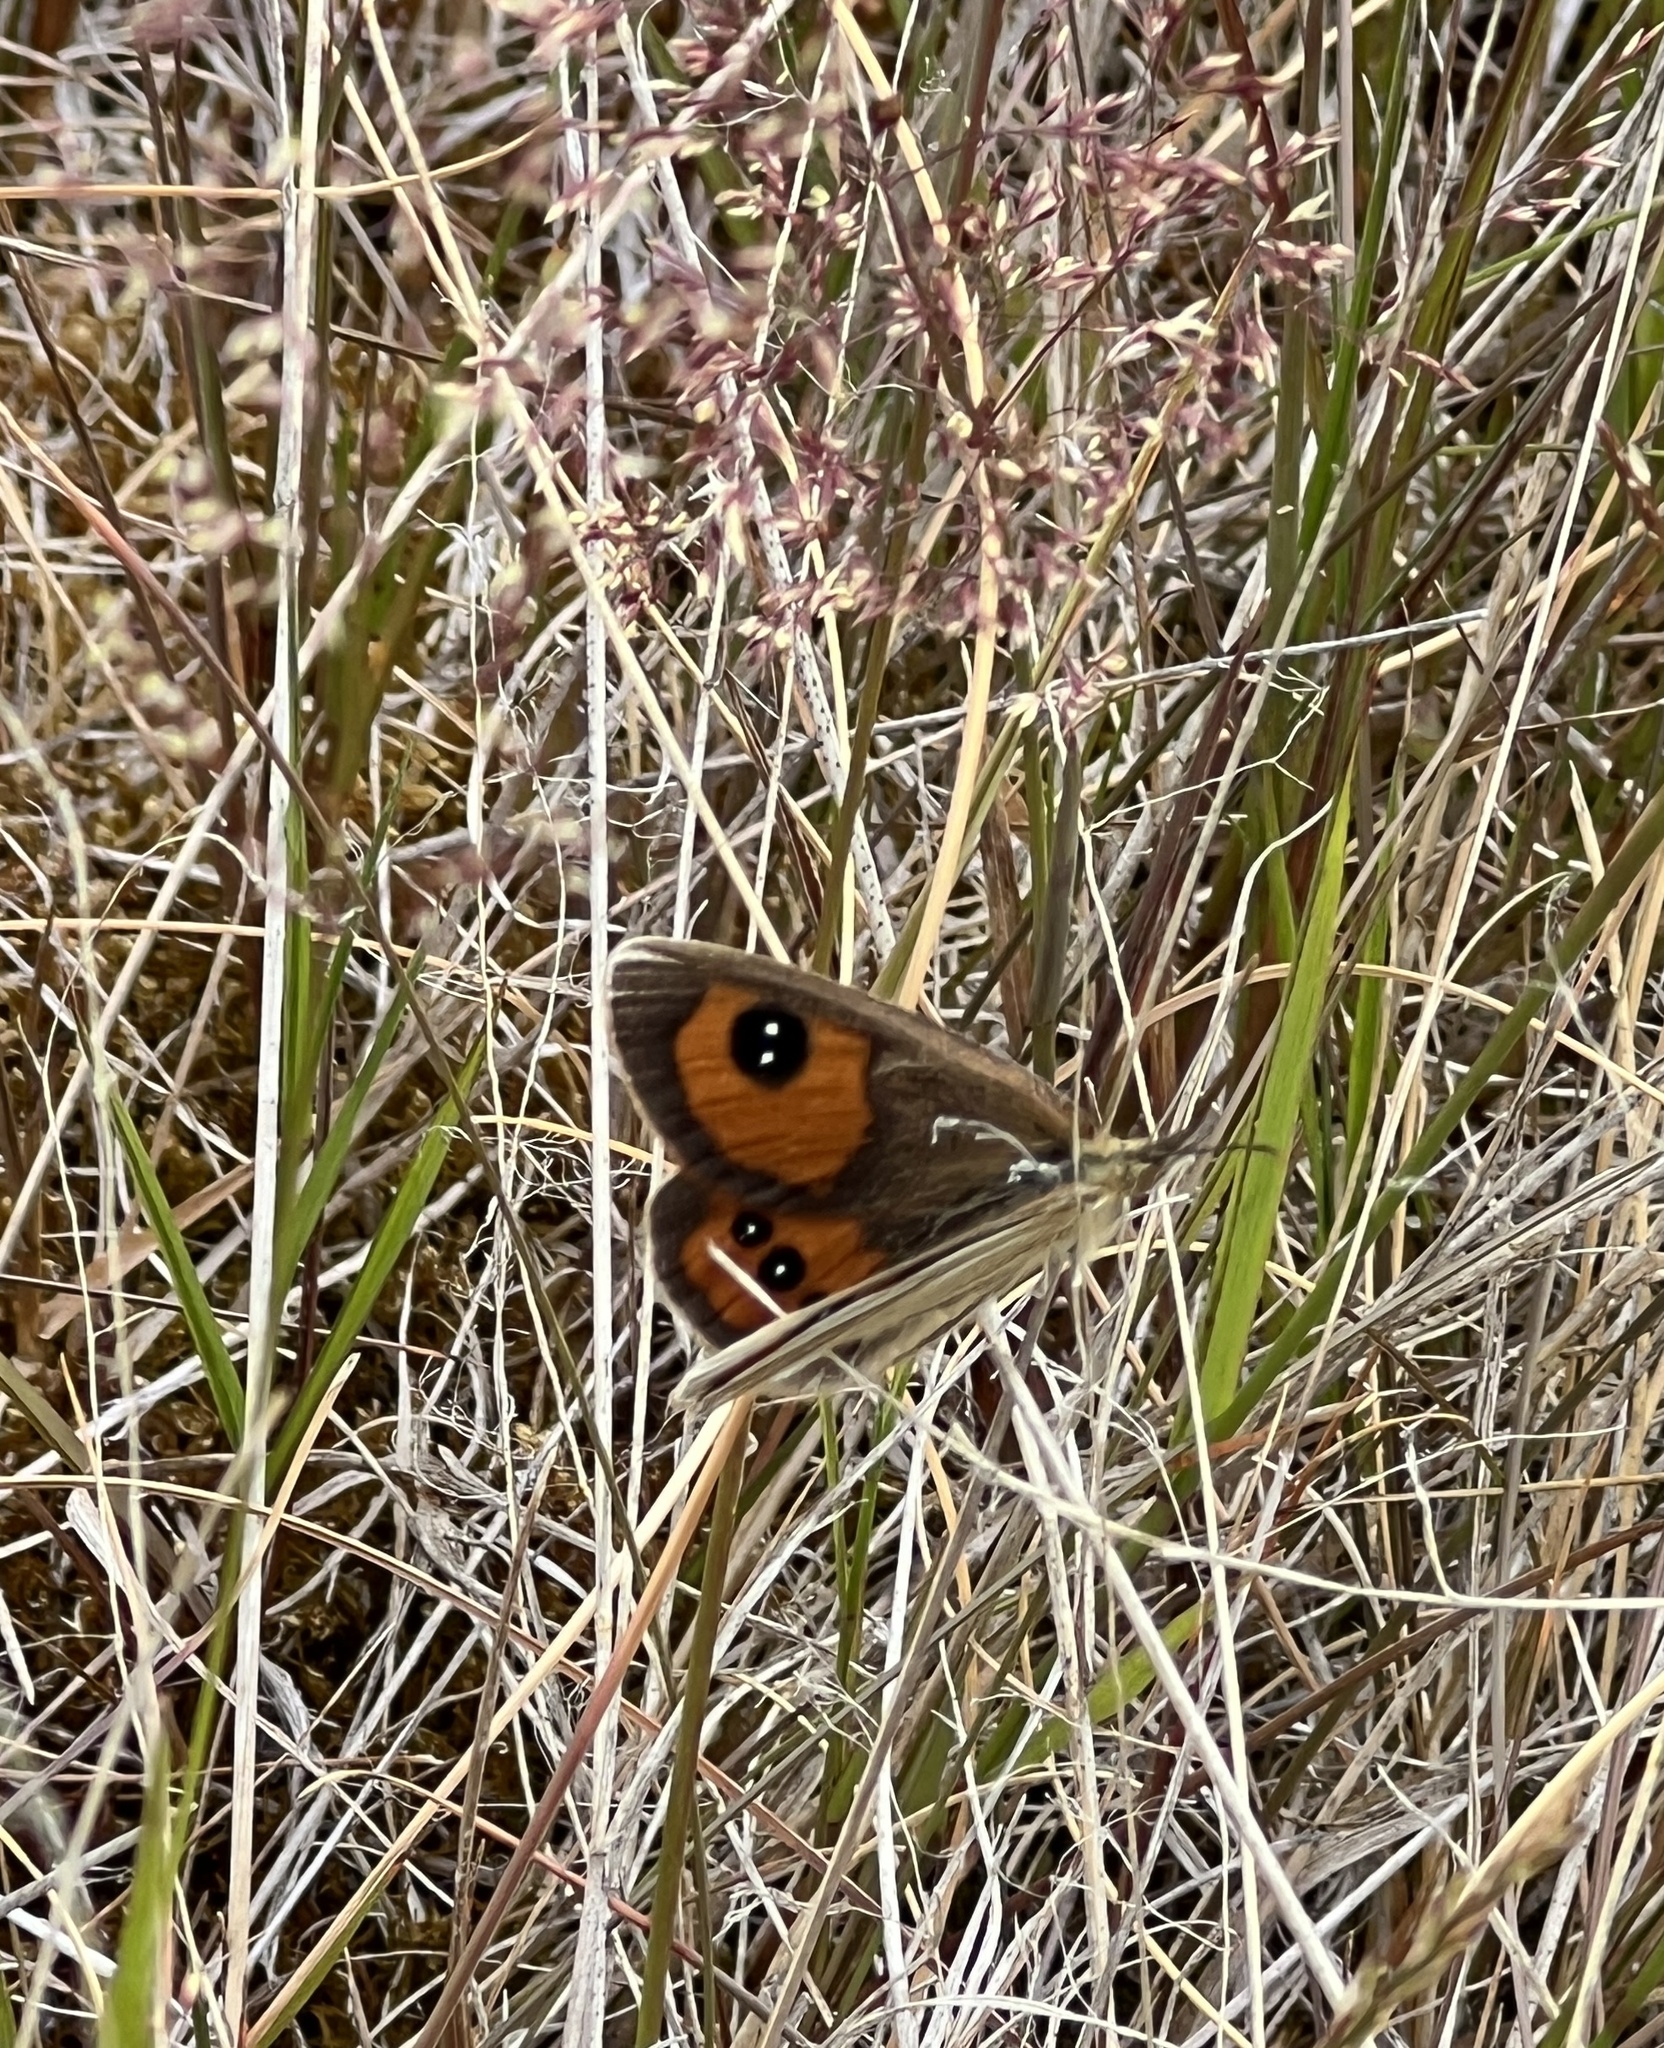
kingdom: Animalia
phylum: Arthropoda
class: Insecta
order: Lepidoptera
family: Nymphalidae
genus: Argyrophenga
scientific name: Argyrophenga antipodum
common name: Common tussock butterfly
